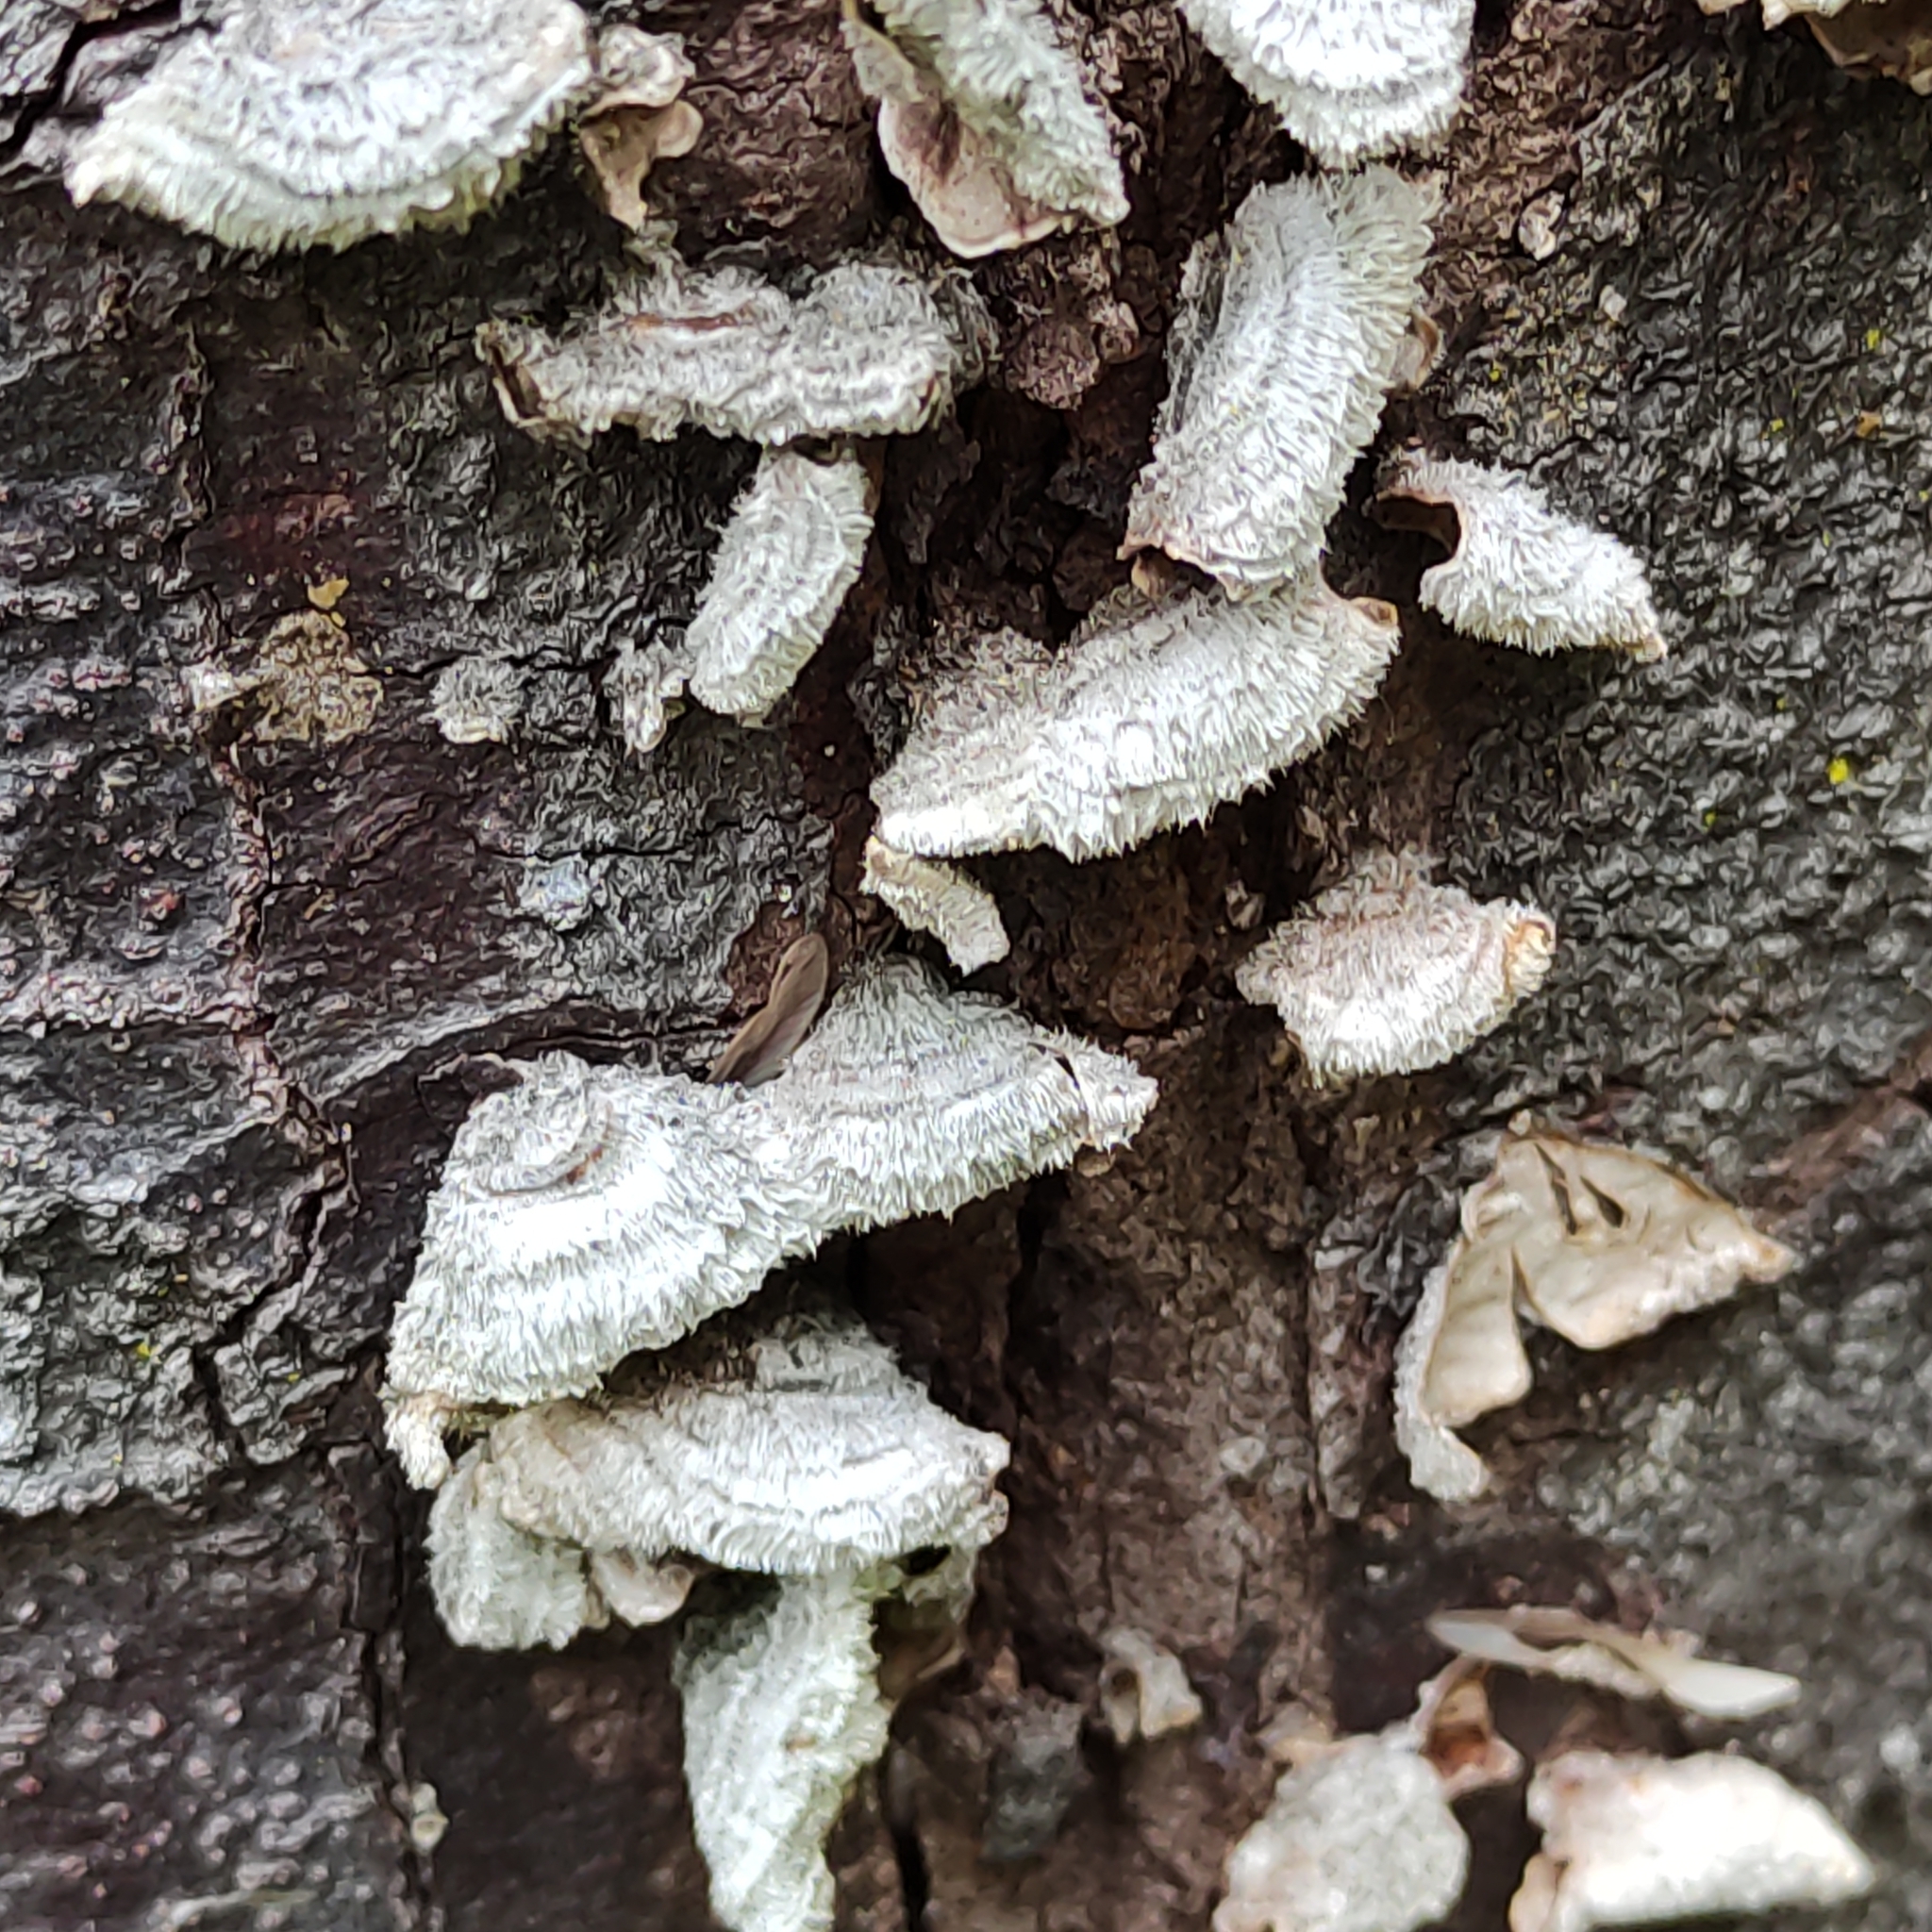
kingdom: Fungi
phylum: Basidiomycota
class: Agaricomycetes
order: Agaricales
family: Schizophyllaceae
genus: Schizophyllum
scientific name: Schizophyllum commune
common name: Common porecrust
